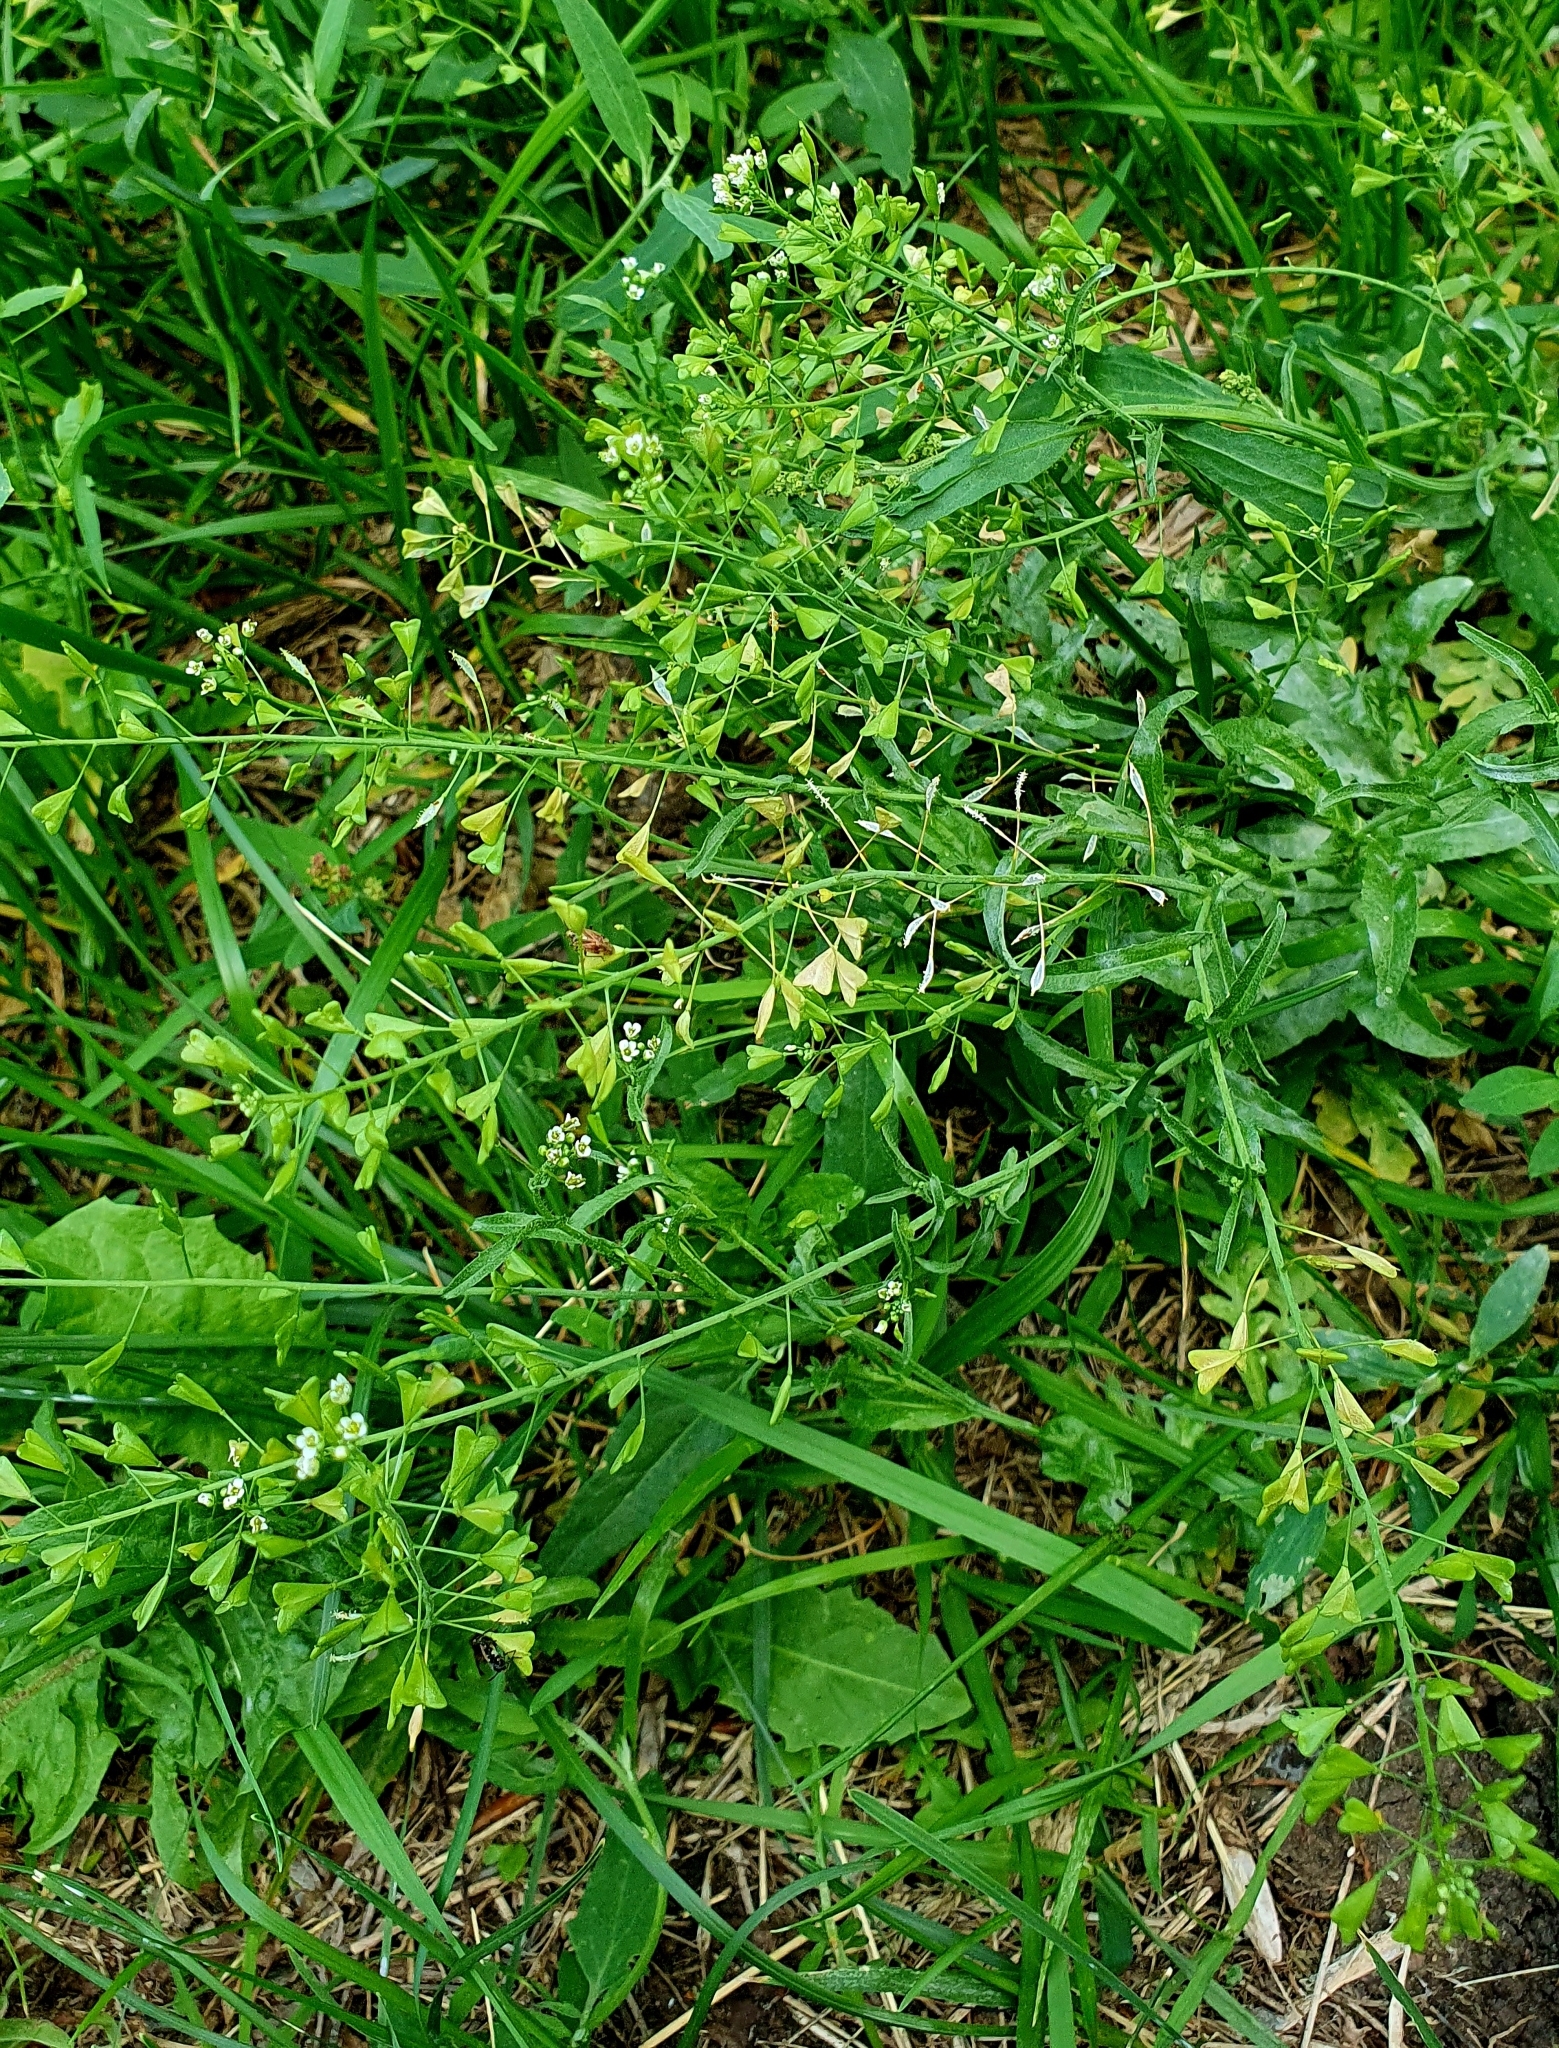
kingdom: Plantae
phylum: Tracheophyta
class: Magnoliopsida
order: Brassicales
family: Brassicaceae
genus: Capsella
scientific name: Capsella bursa-pastoris
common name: Shepherd's purse
